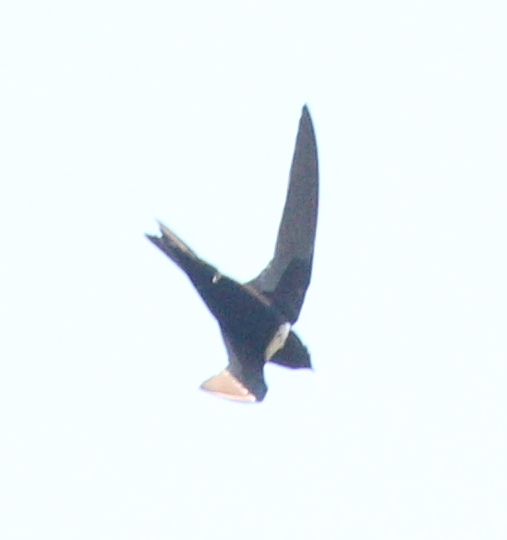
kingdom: Animalia
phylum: Chordata
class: Aves
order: Apodiformes
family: Apodidae
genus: Streptoprocne
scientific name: Streptoprocne zonaris
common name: White-collared swift
